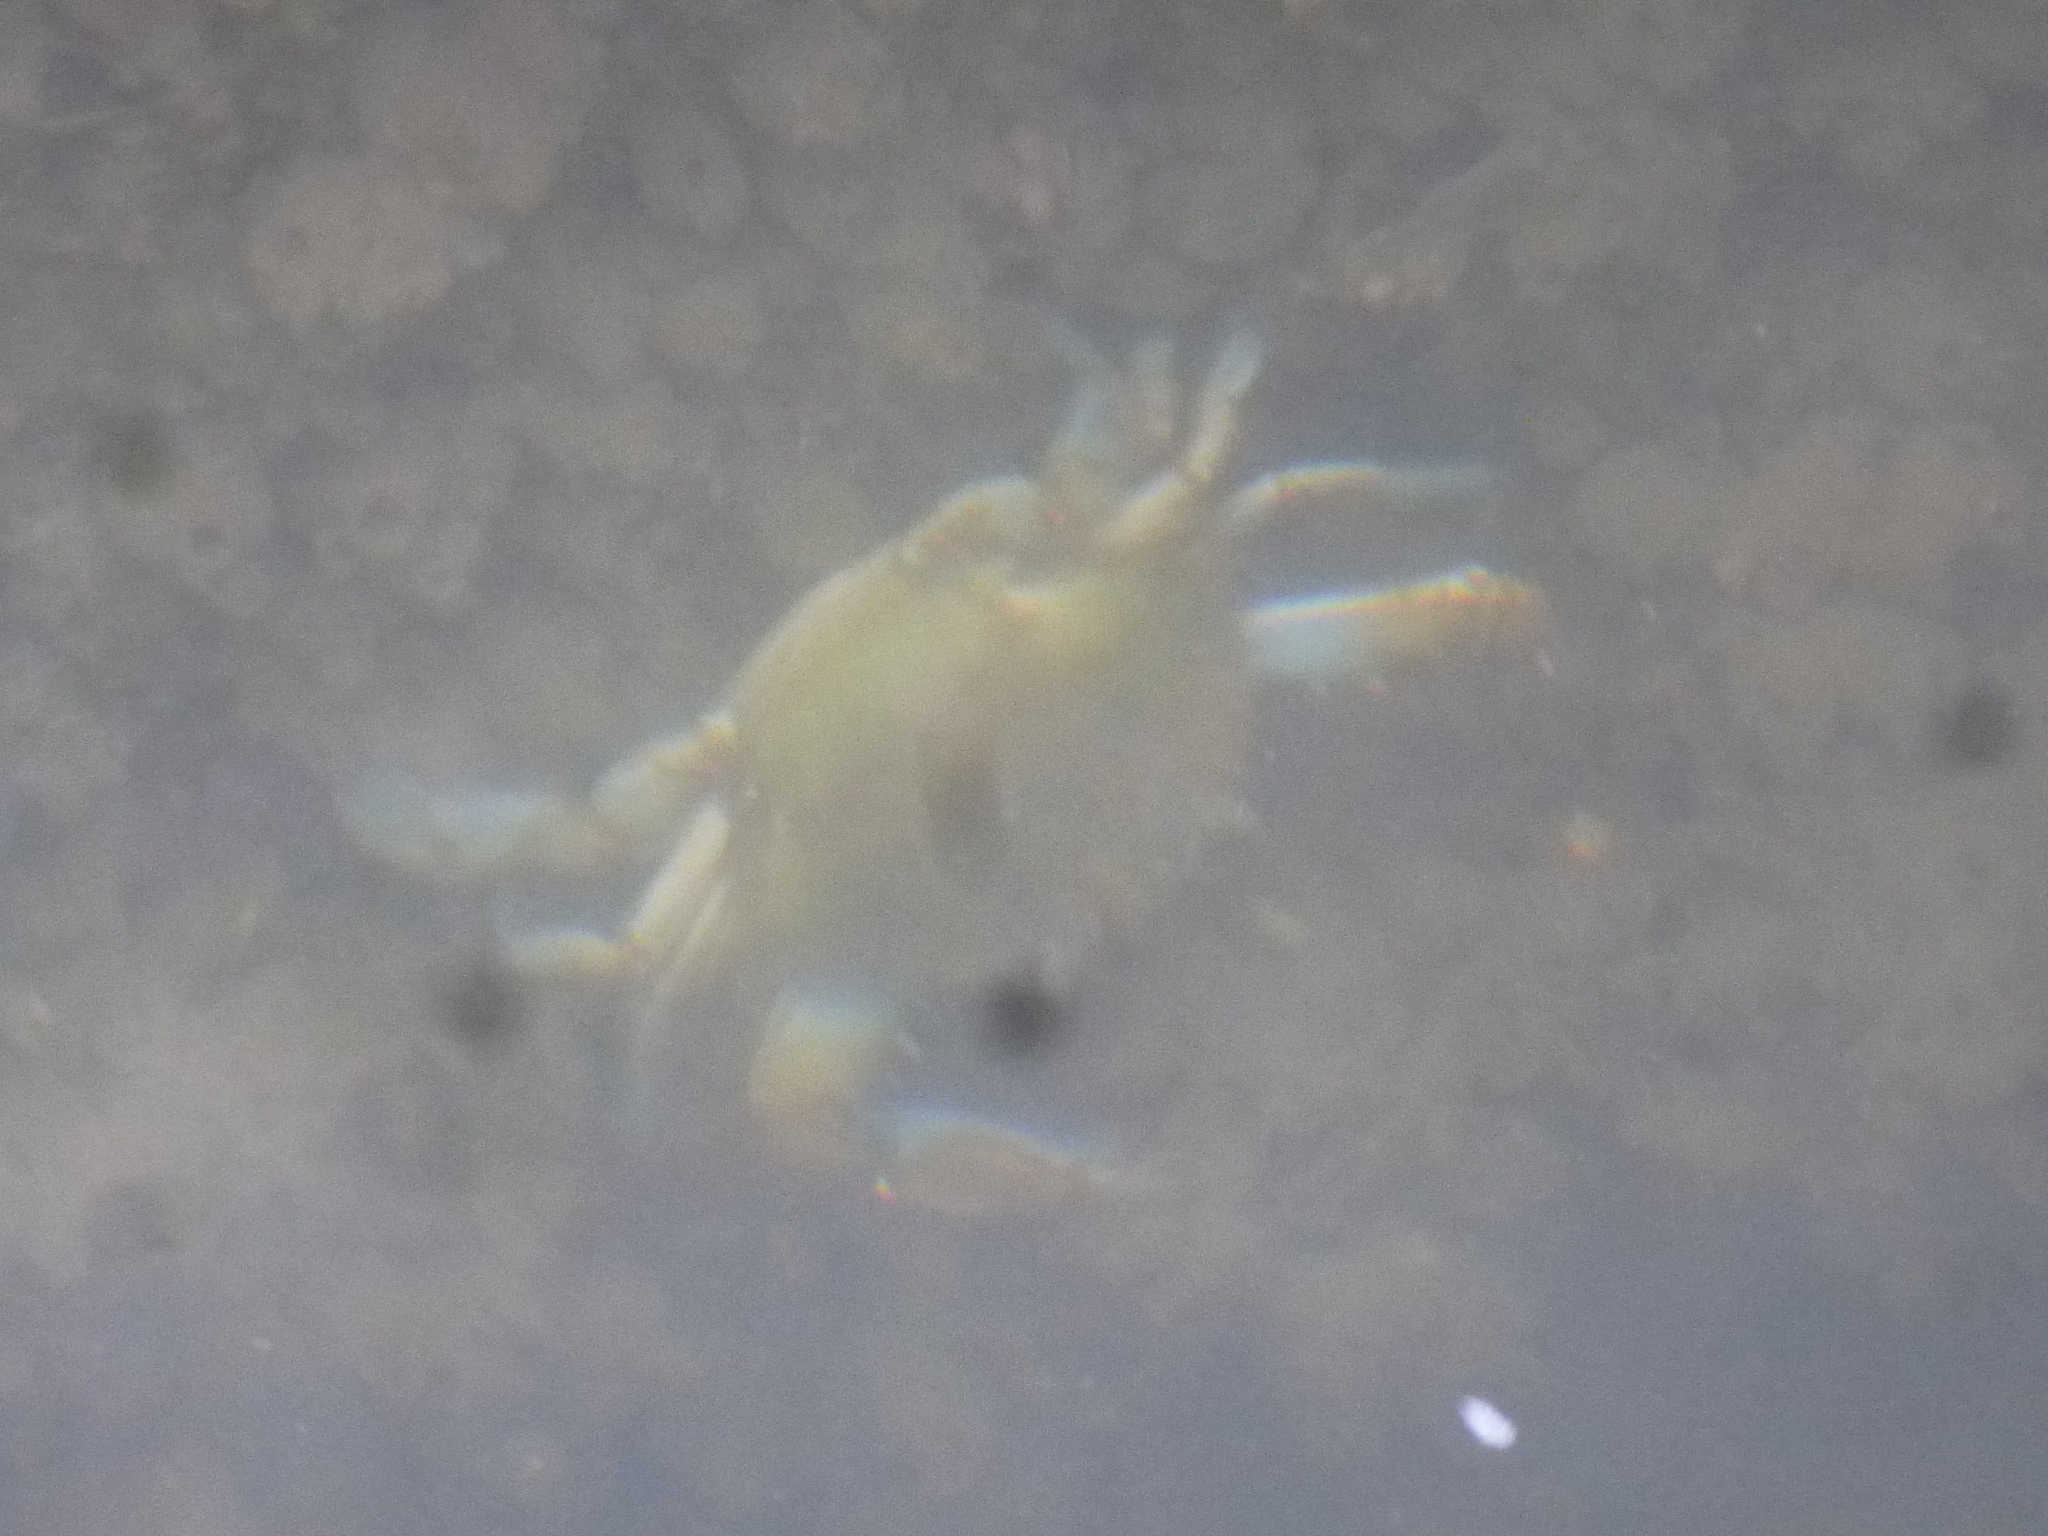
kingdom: Animalia
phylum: Arthropoda
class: Malacostraca
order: Decapoda
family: Portunidae
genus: Callinectes
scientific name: Callinectes sapidus
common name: Blue crab
